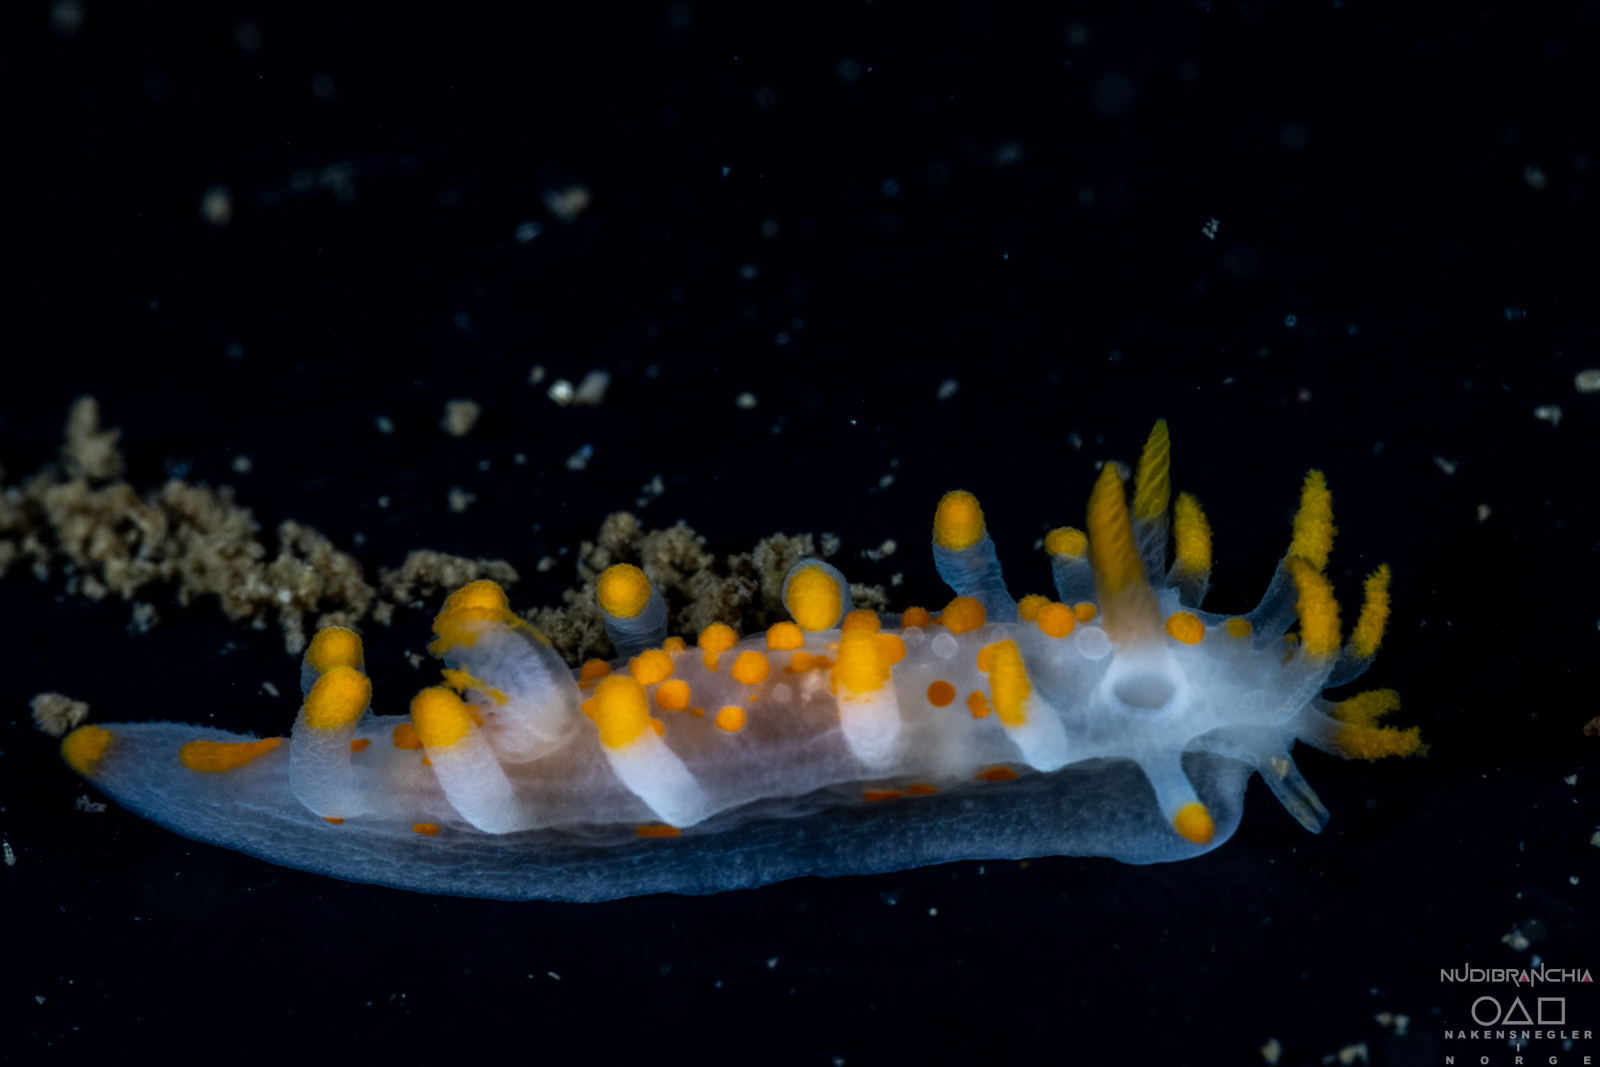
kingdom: Animalia
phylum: Mollusca
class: Gastropoda
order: Nudibranchia
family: Polyceridae
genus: Limacia
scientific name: Limacia clavigera
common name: Orange-clubbed sea slug
